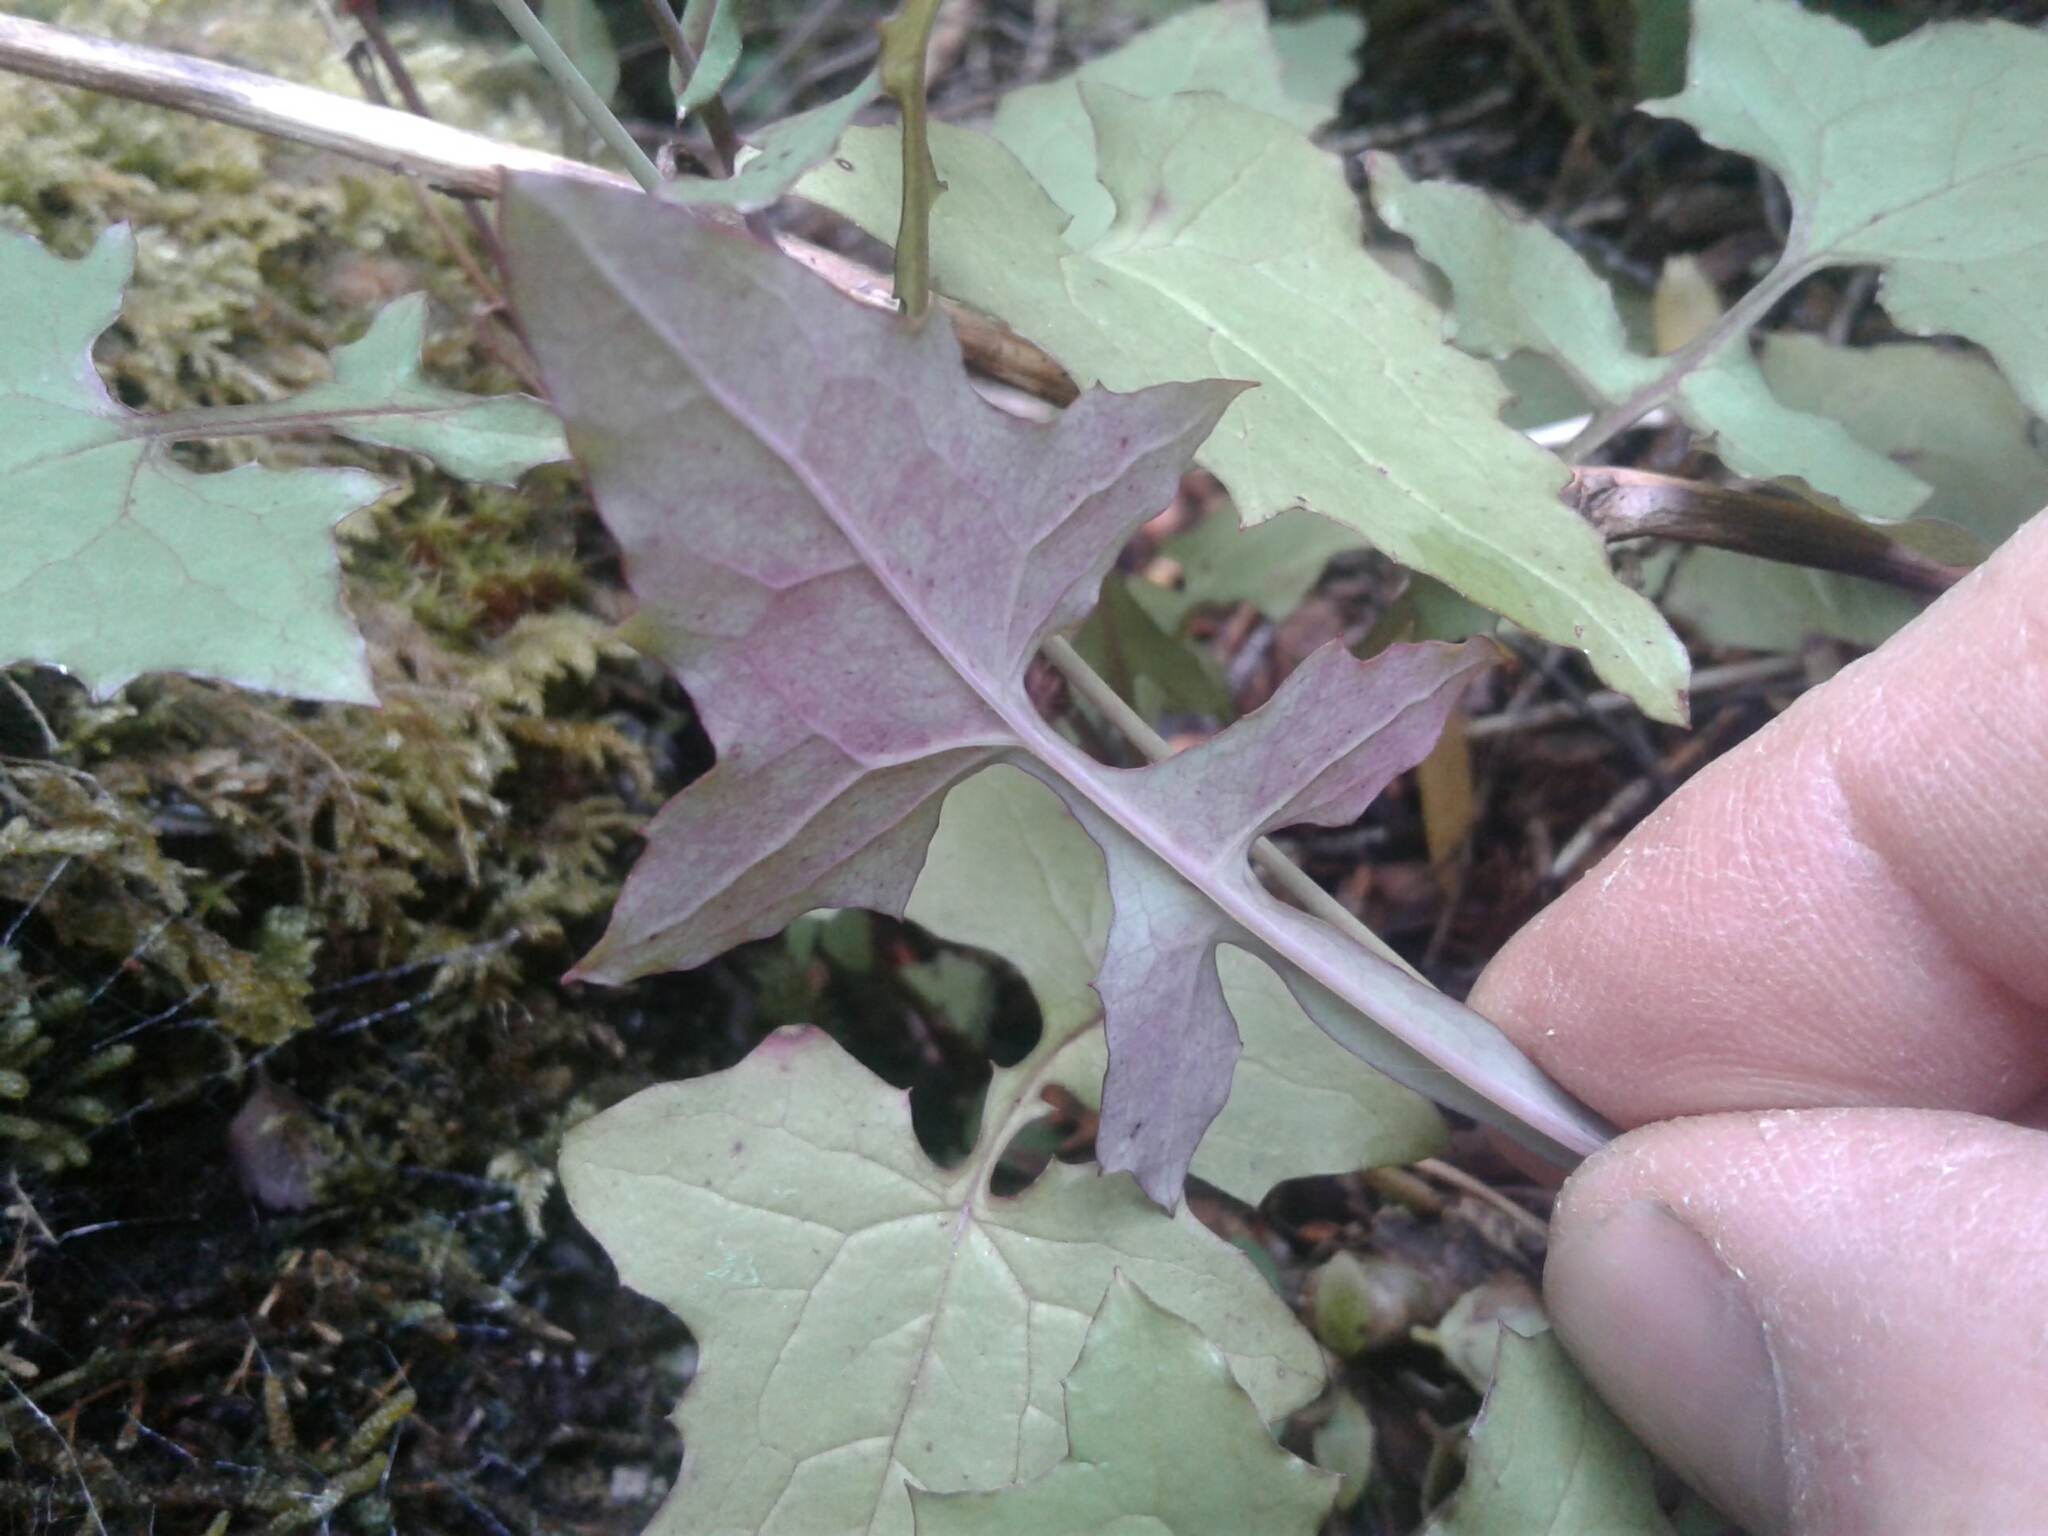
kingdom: Plantae
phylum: Tracheophyta
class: Magnoliopsida
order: Asterales
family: Asteraceae
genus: Mycelis
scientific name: Mycelis muralis
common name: Wall lettuce
